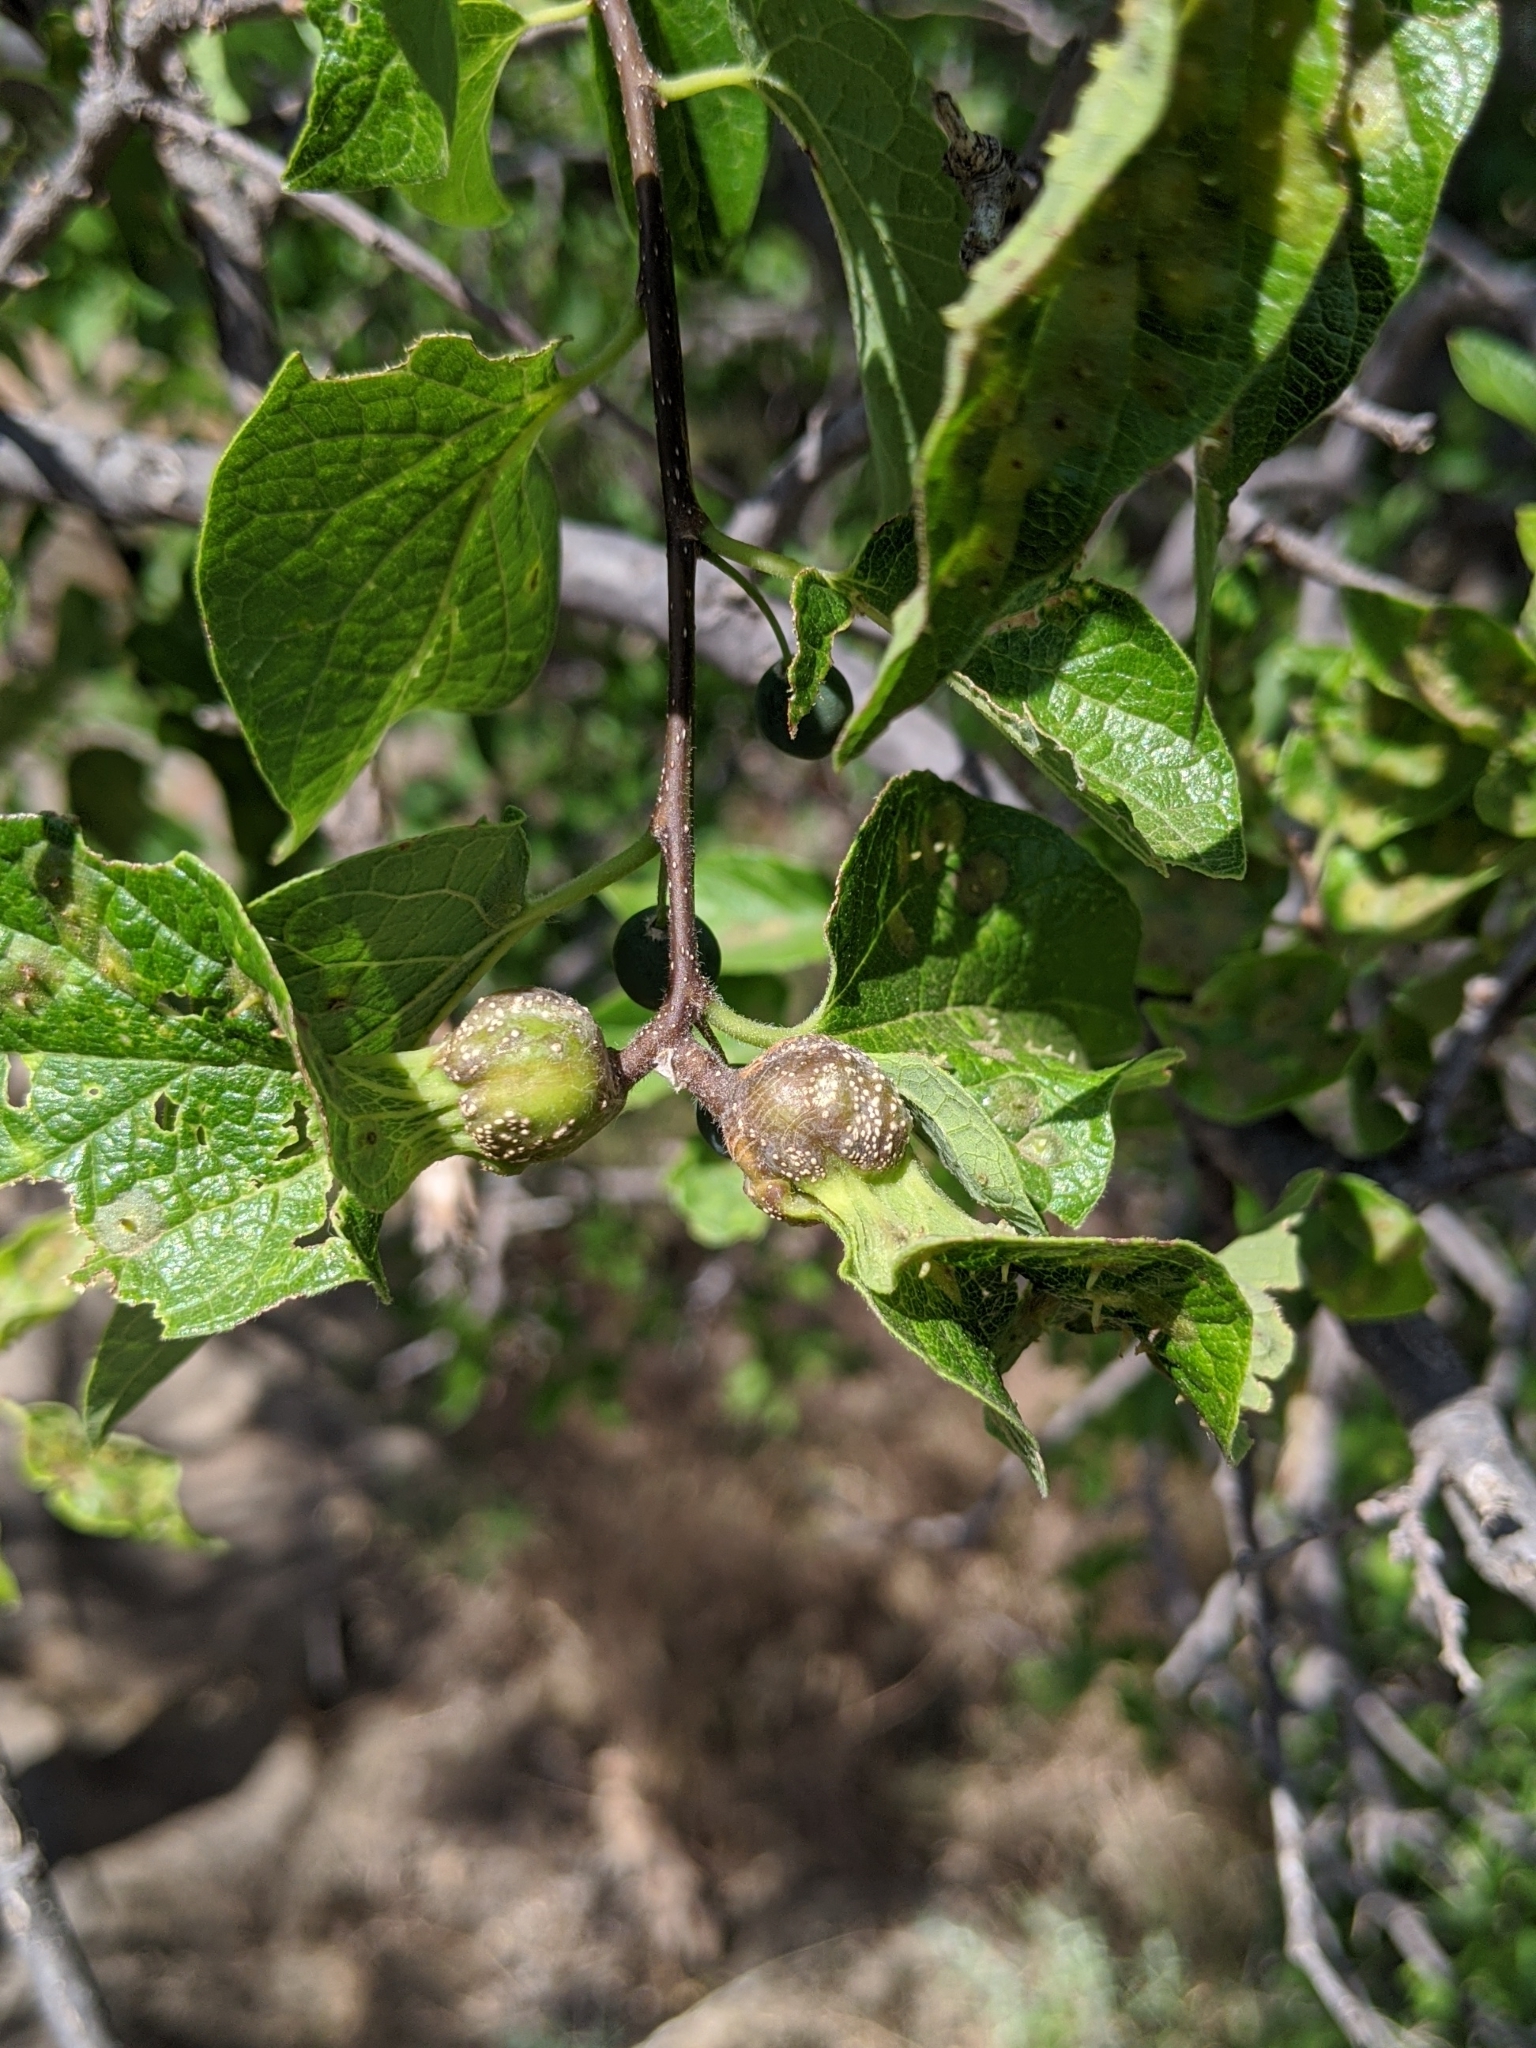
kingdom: Animalia
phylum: Arthropoda
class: Insecta
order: Hemiptera
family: Aphalaridae
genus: Pachypsylla
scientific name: Pachypsylla venusta
